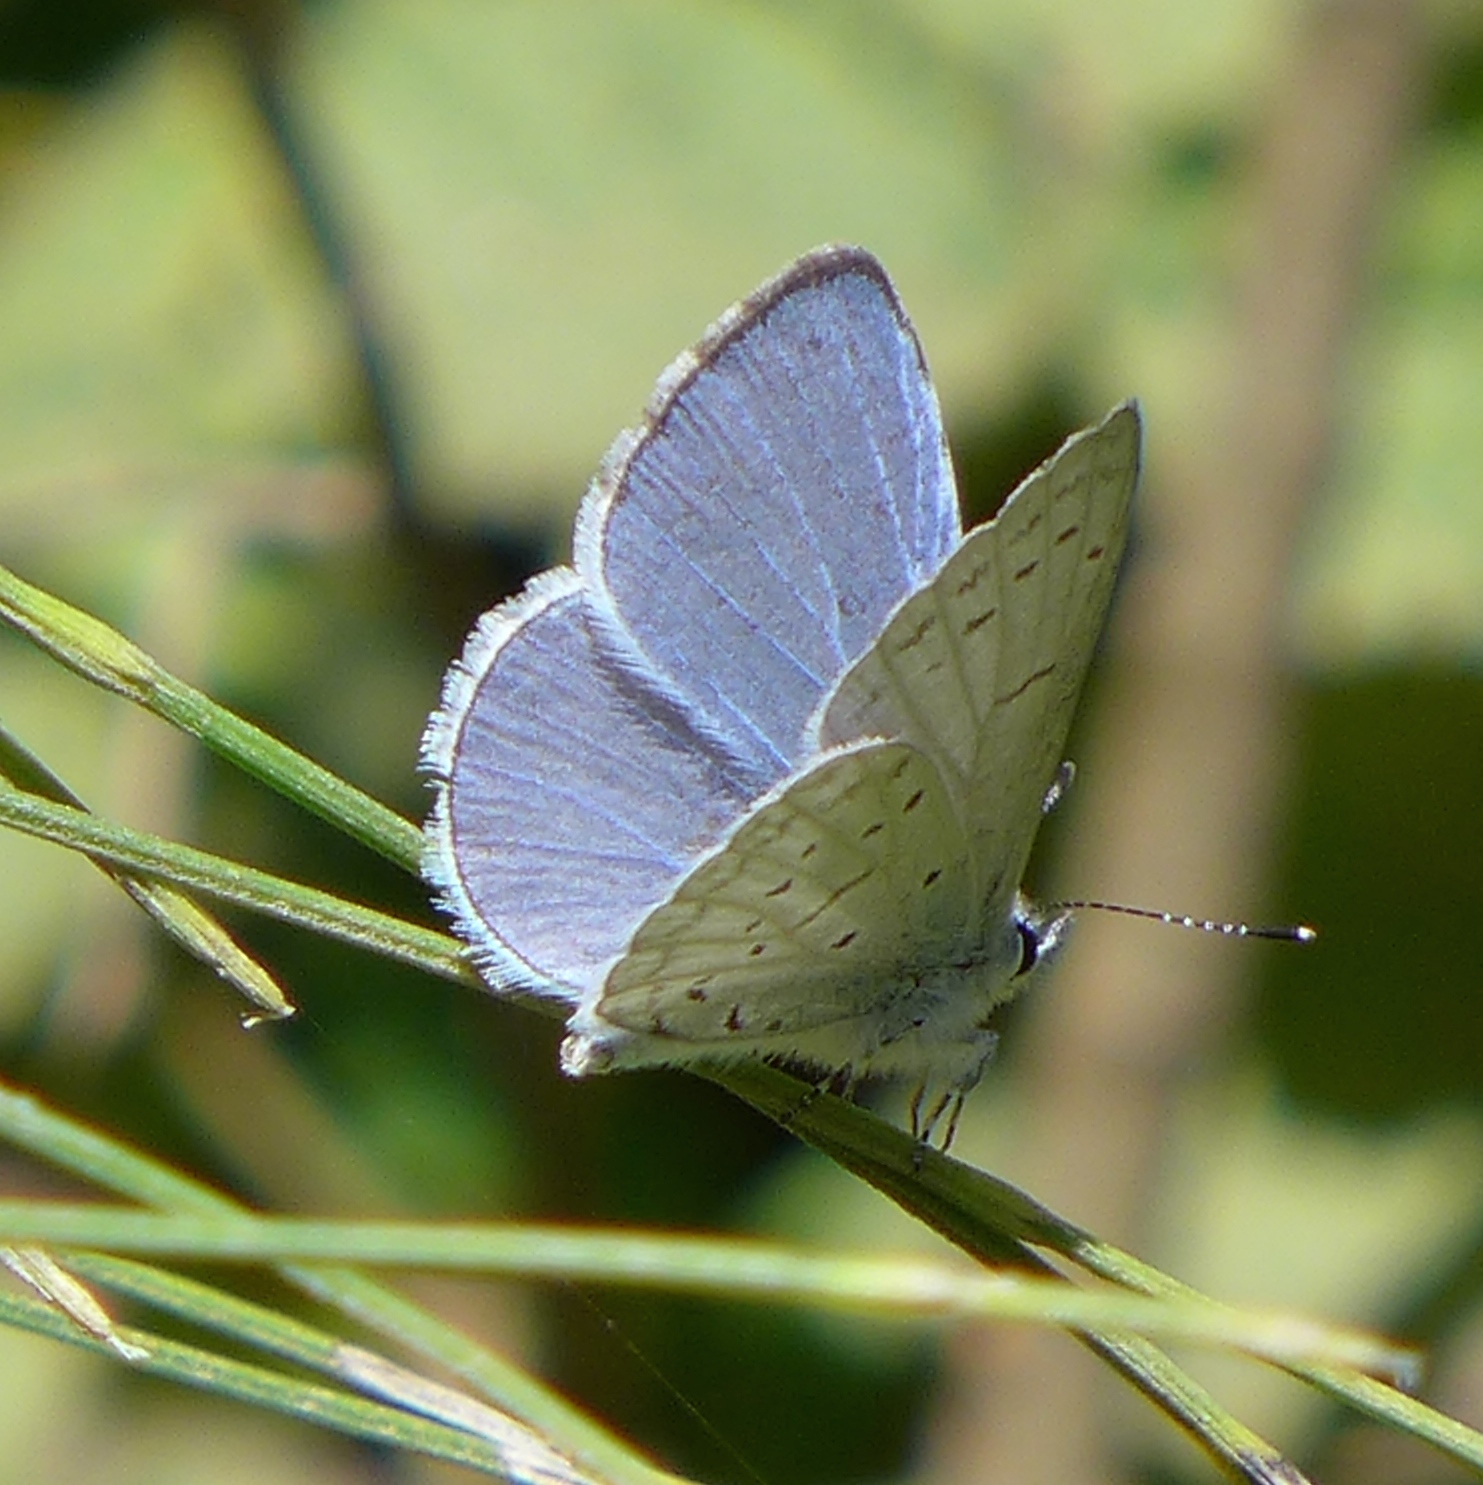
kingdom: Animalia
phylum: Arthropoda
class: Insecta
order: Lepidoptera
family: Lycaenidae
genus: Celastrina
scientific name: Celastrina ladon
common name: Spring azure
